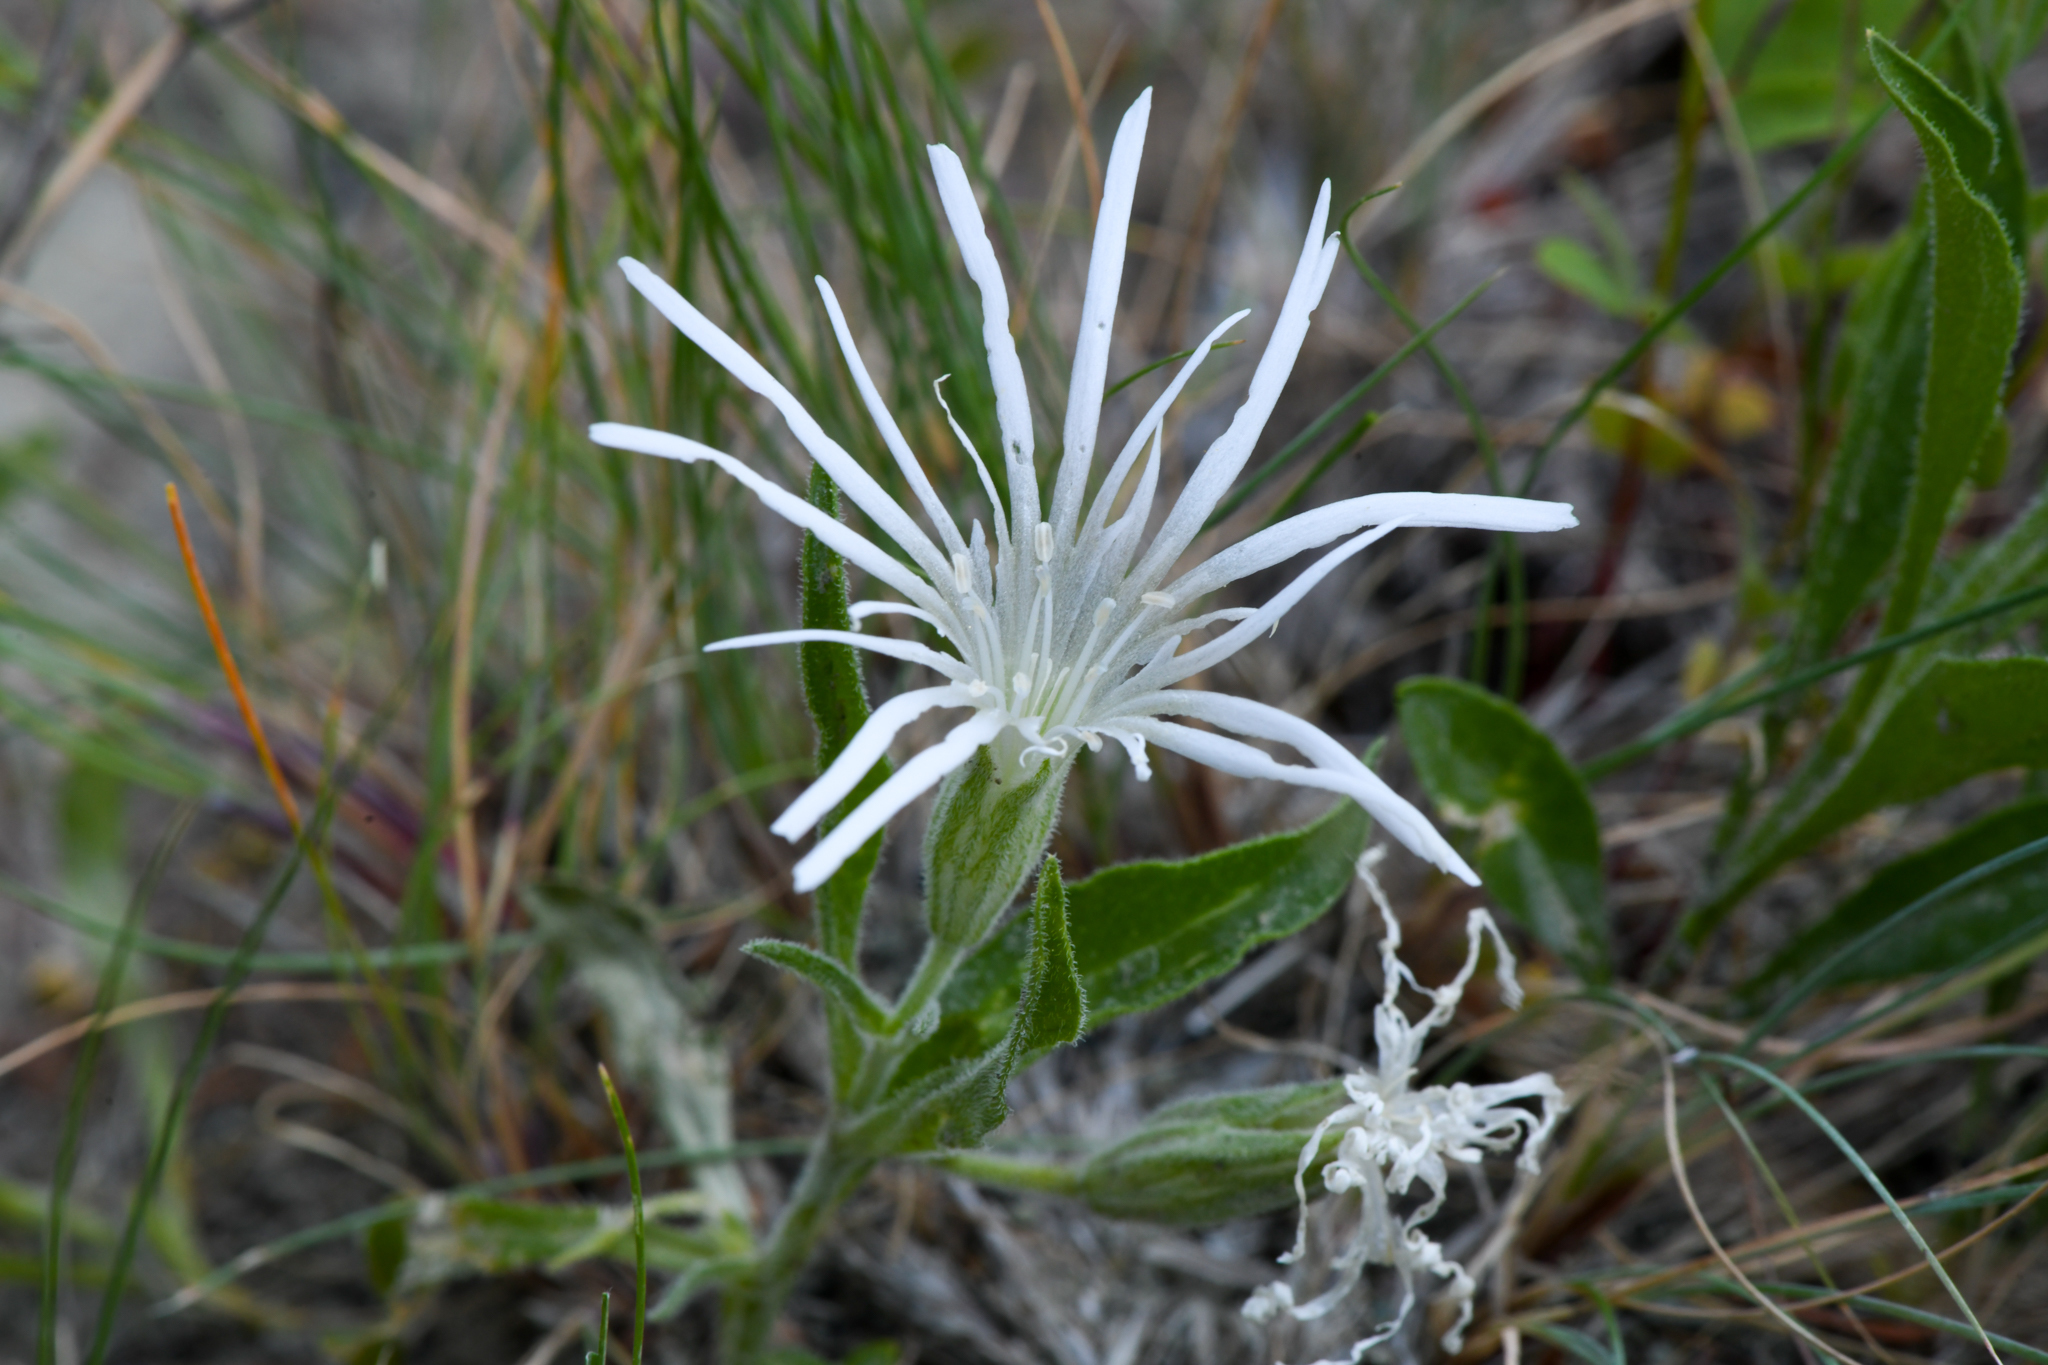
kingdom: Plantae
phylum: Tracheophyta
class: Magnoliopsida
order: Caryophyllales
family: Caryophyllaceae
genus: Silene
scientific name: Silene nelsonii
